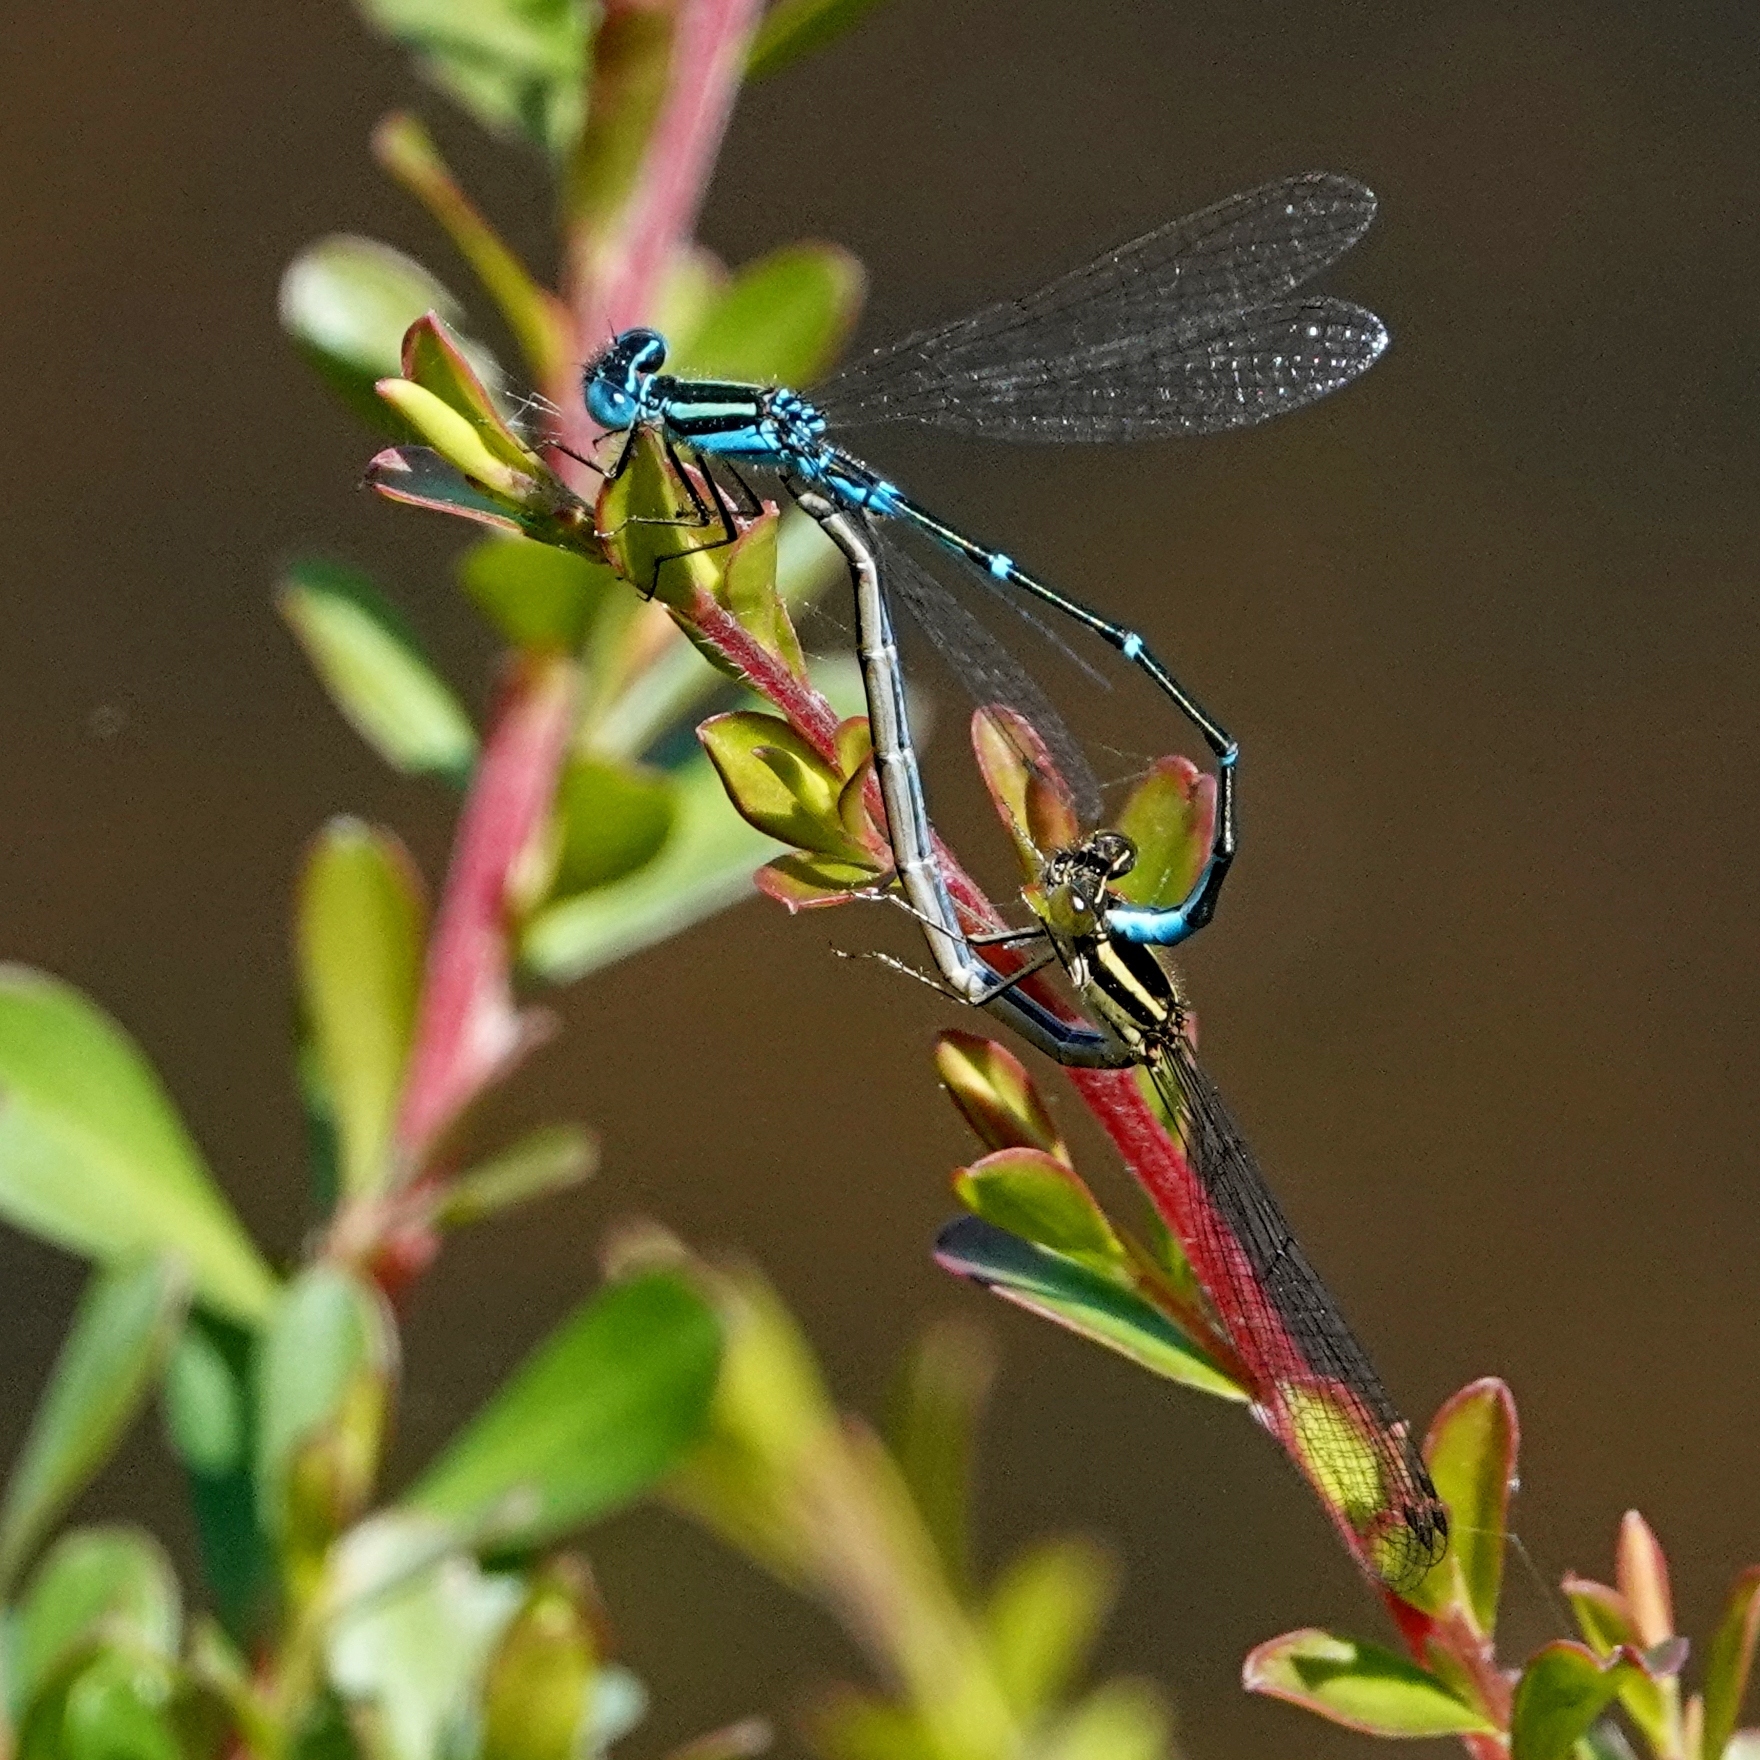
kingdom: Animalia
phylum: Arthropoda
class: Insecta
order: Odonata
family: Coenagrionidae
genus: Austroagrion
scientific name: Austroagrion watsoni
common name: Eastern billabongfly
